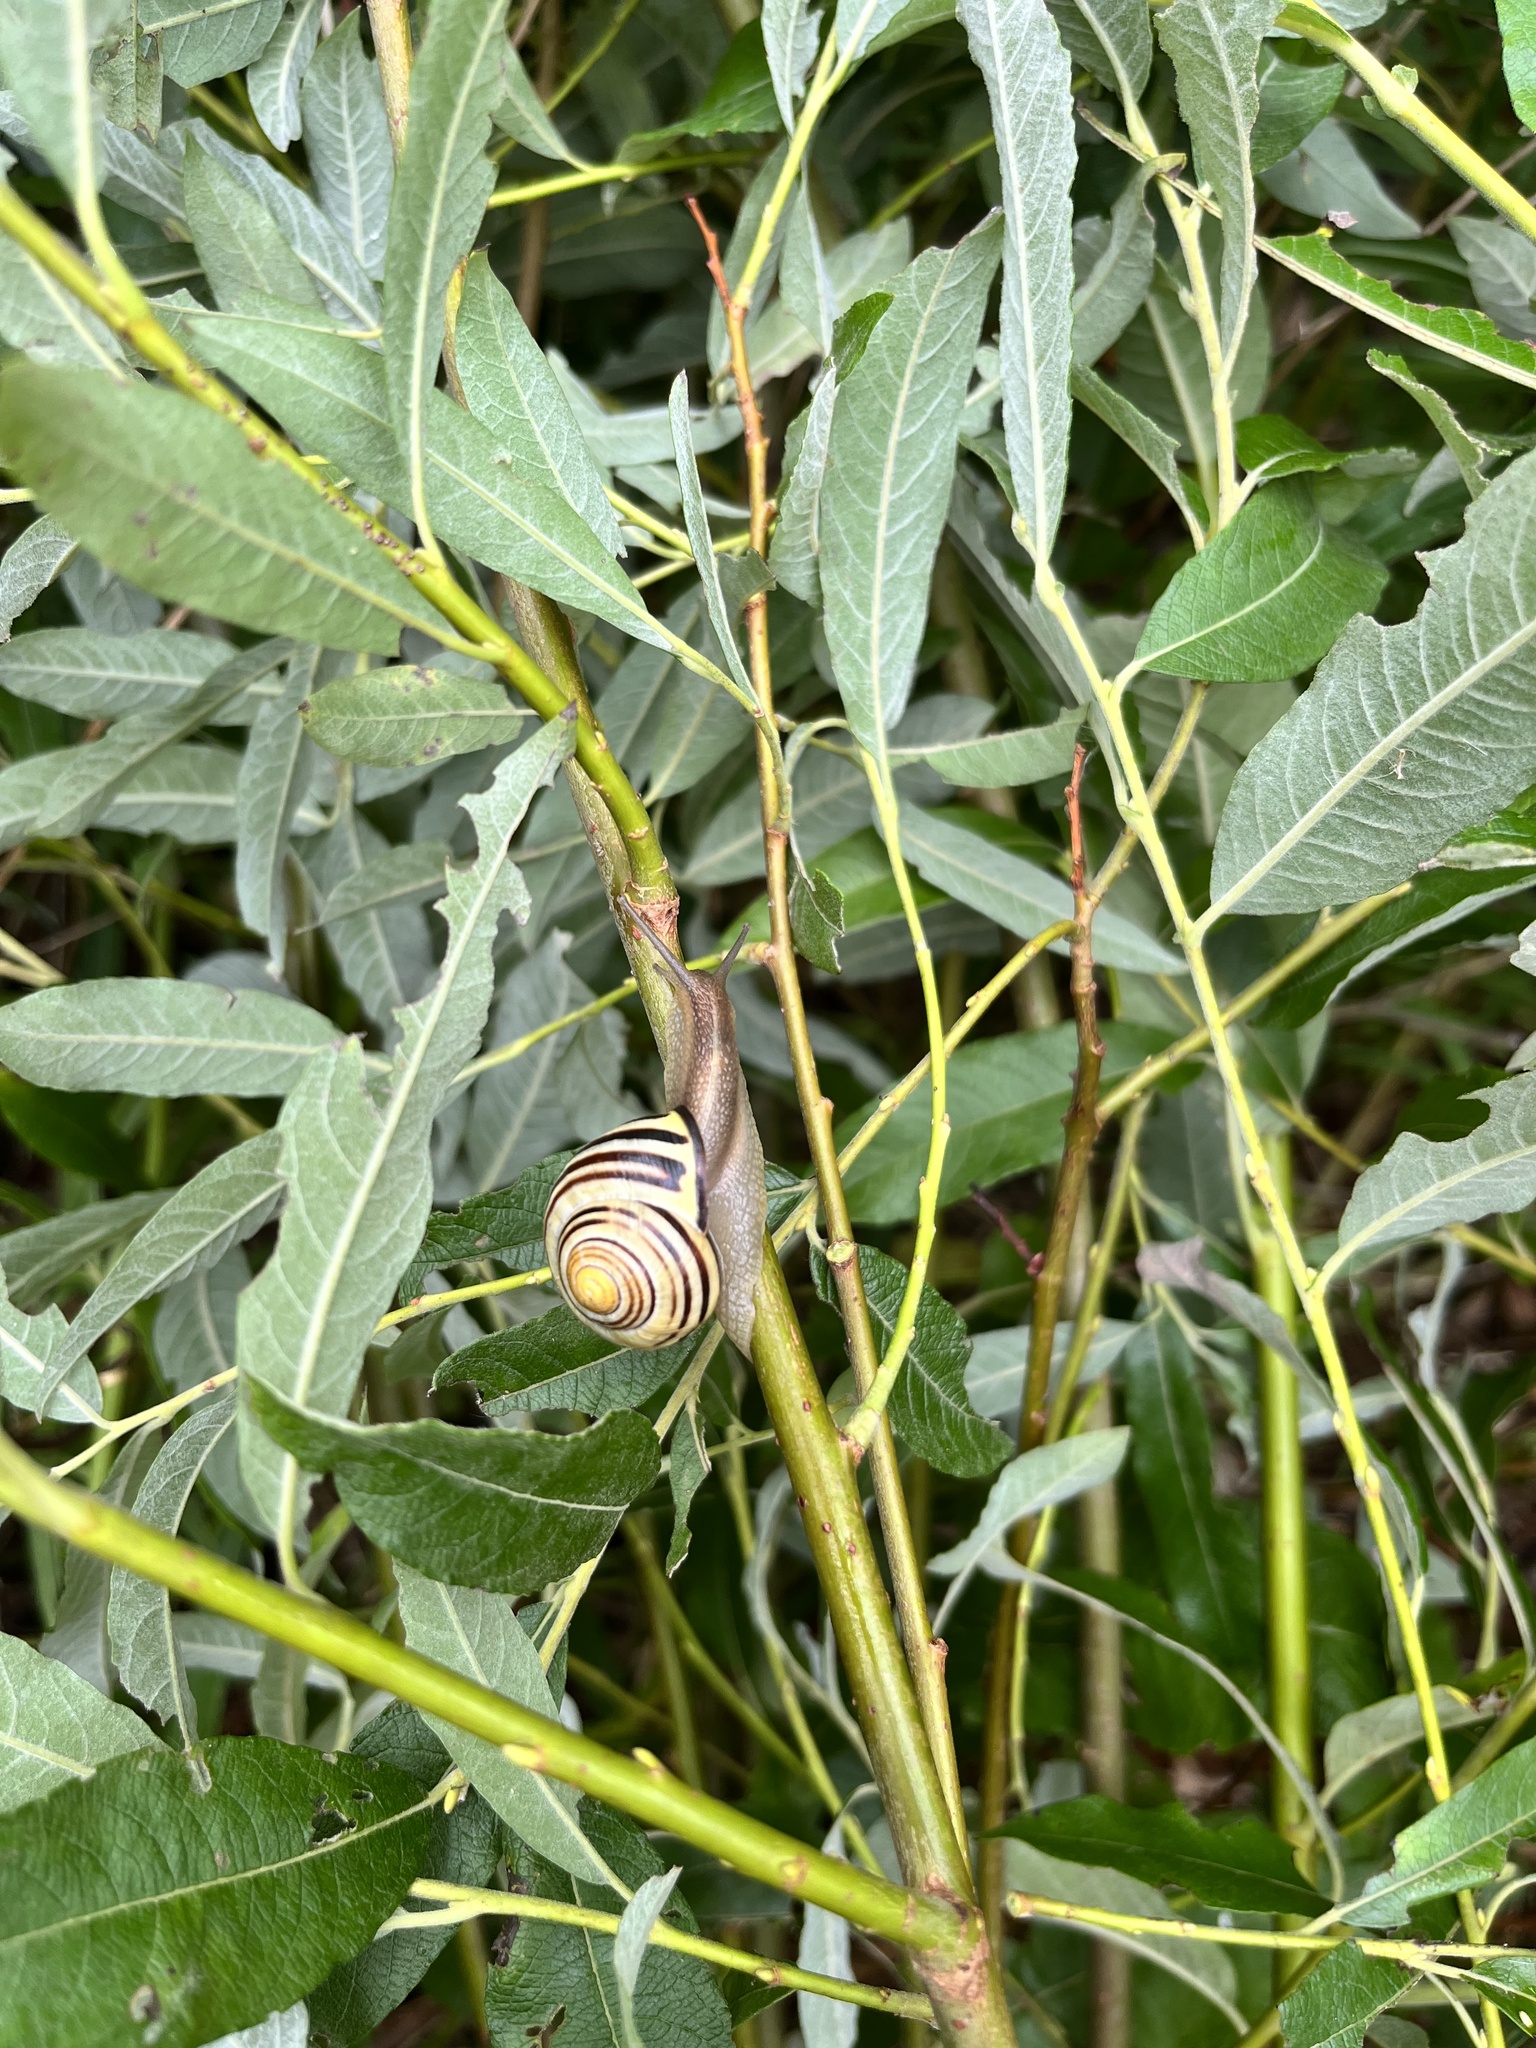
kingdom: Animalia
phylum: Mollusca
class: Gastropoda
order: Stylommatophora
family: Helicidae
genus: Cepaea
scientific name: Cepaea nemoralis
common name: Grovesnail
